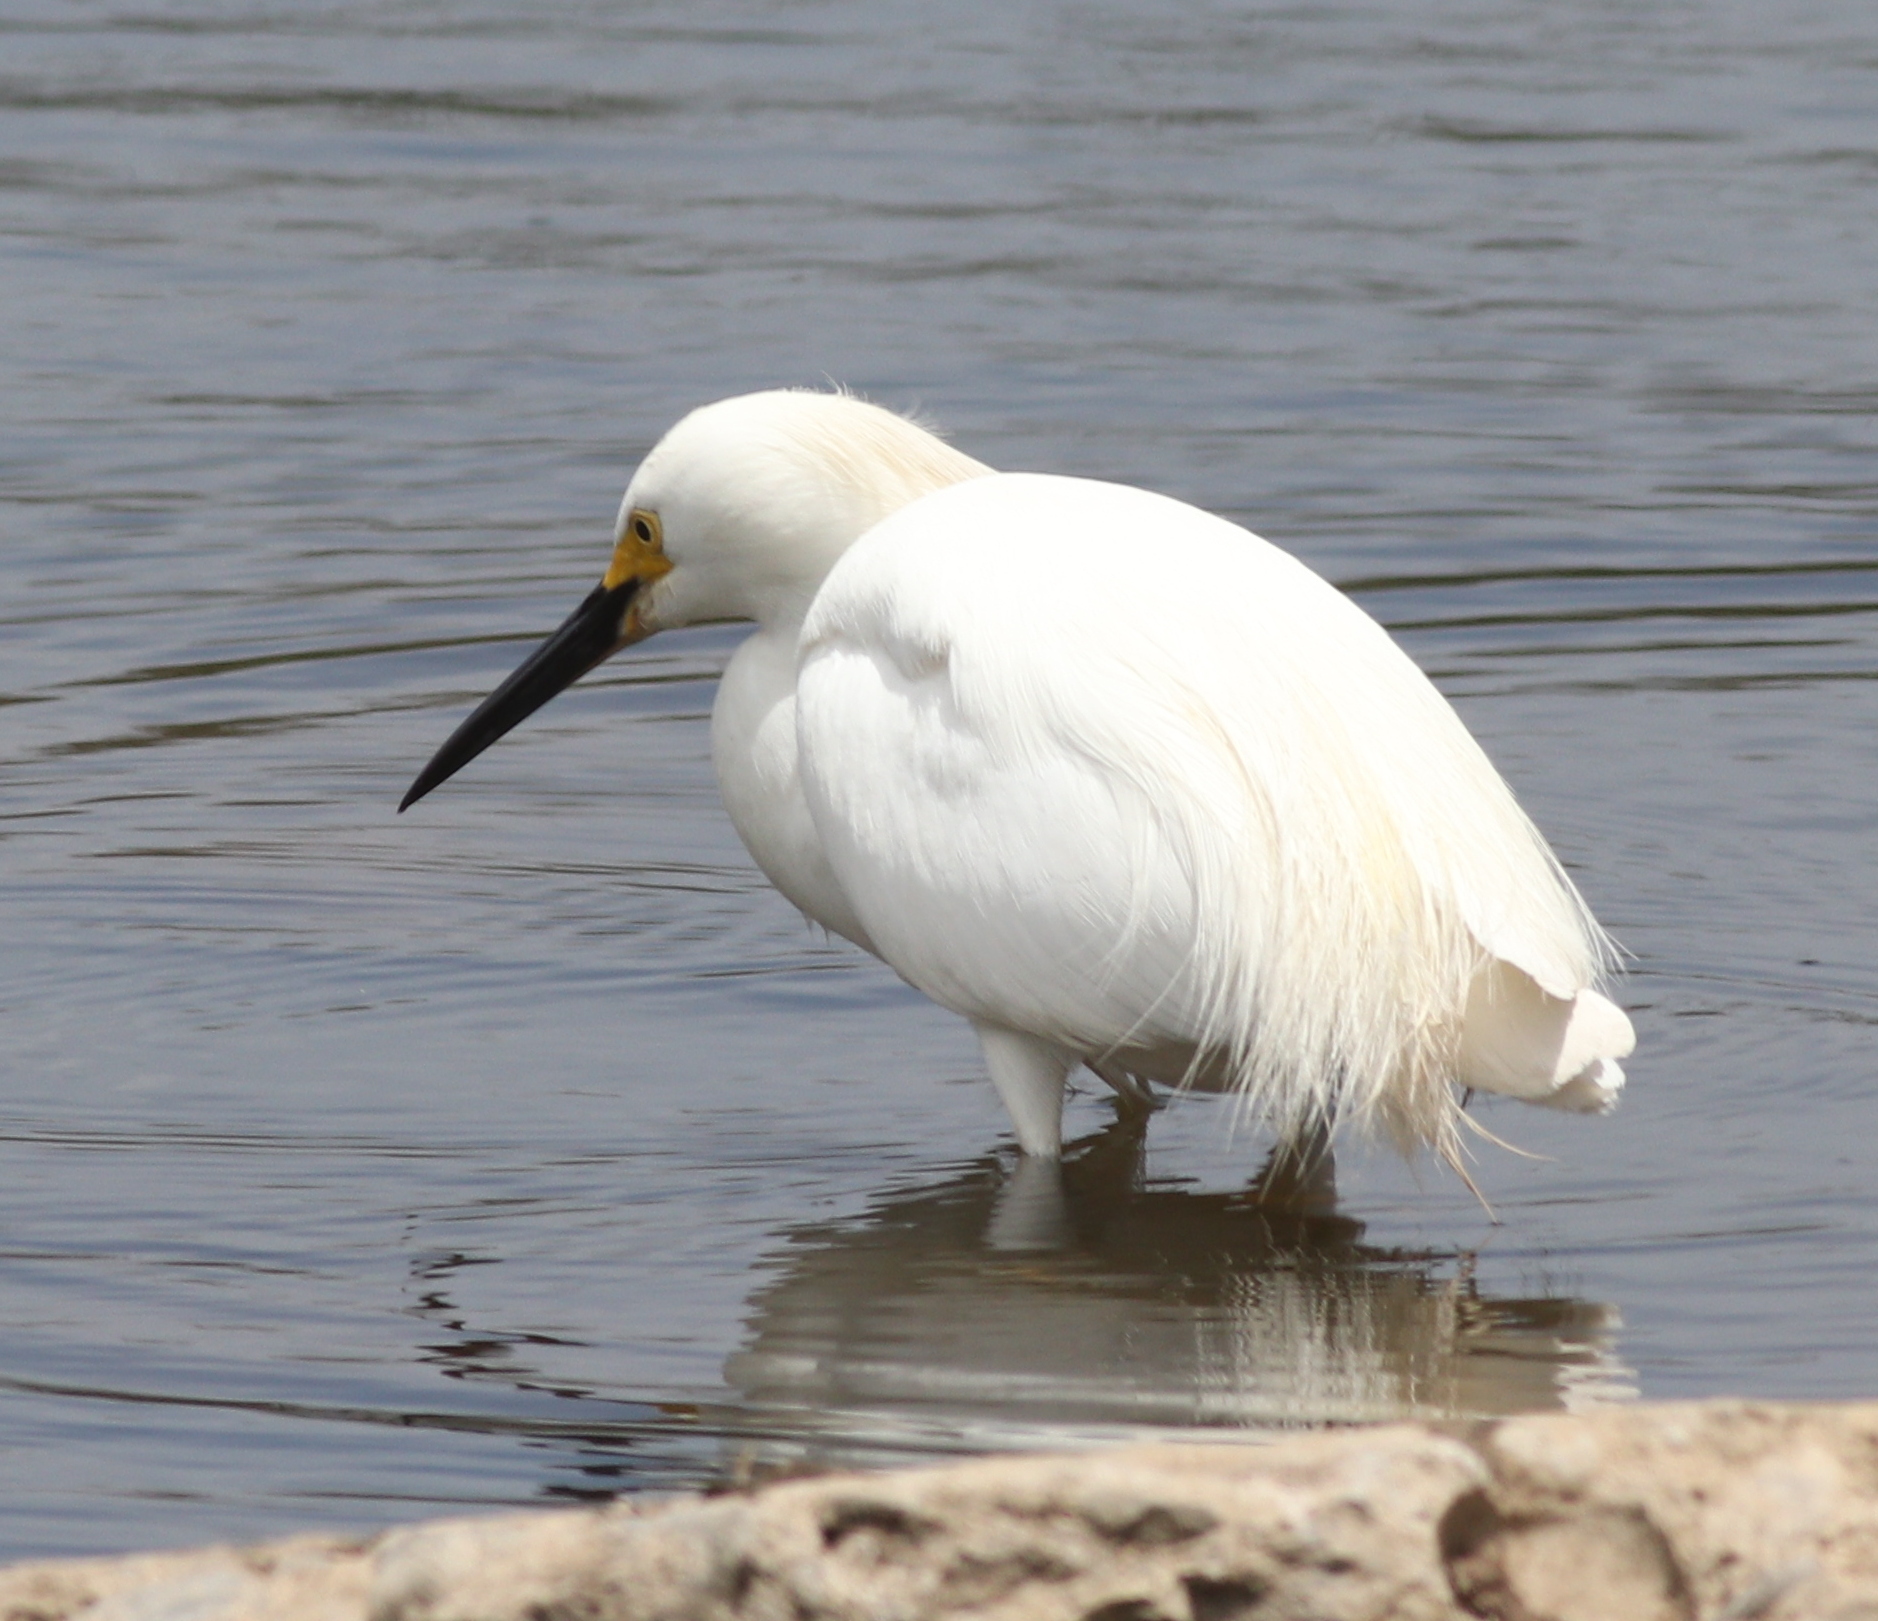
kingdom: Animalia
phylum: Chordata
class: Aves
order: Pelecaniformes
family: Ardeidae
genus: Egretta
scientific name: Egretta thula
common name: Snowy egret
